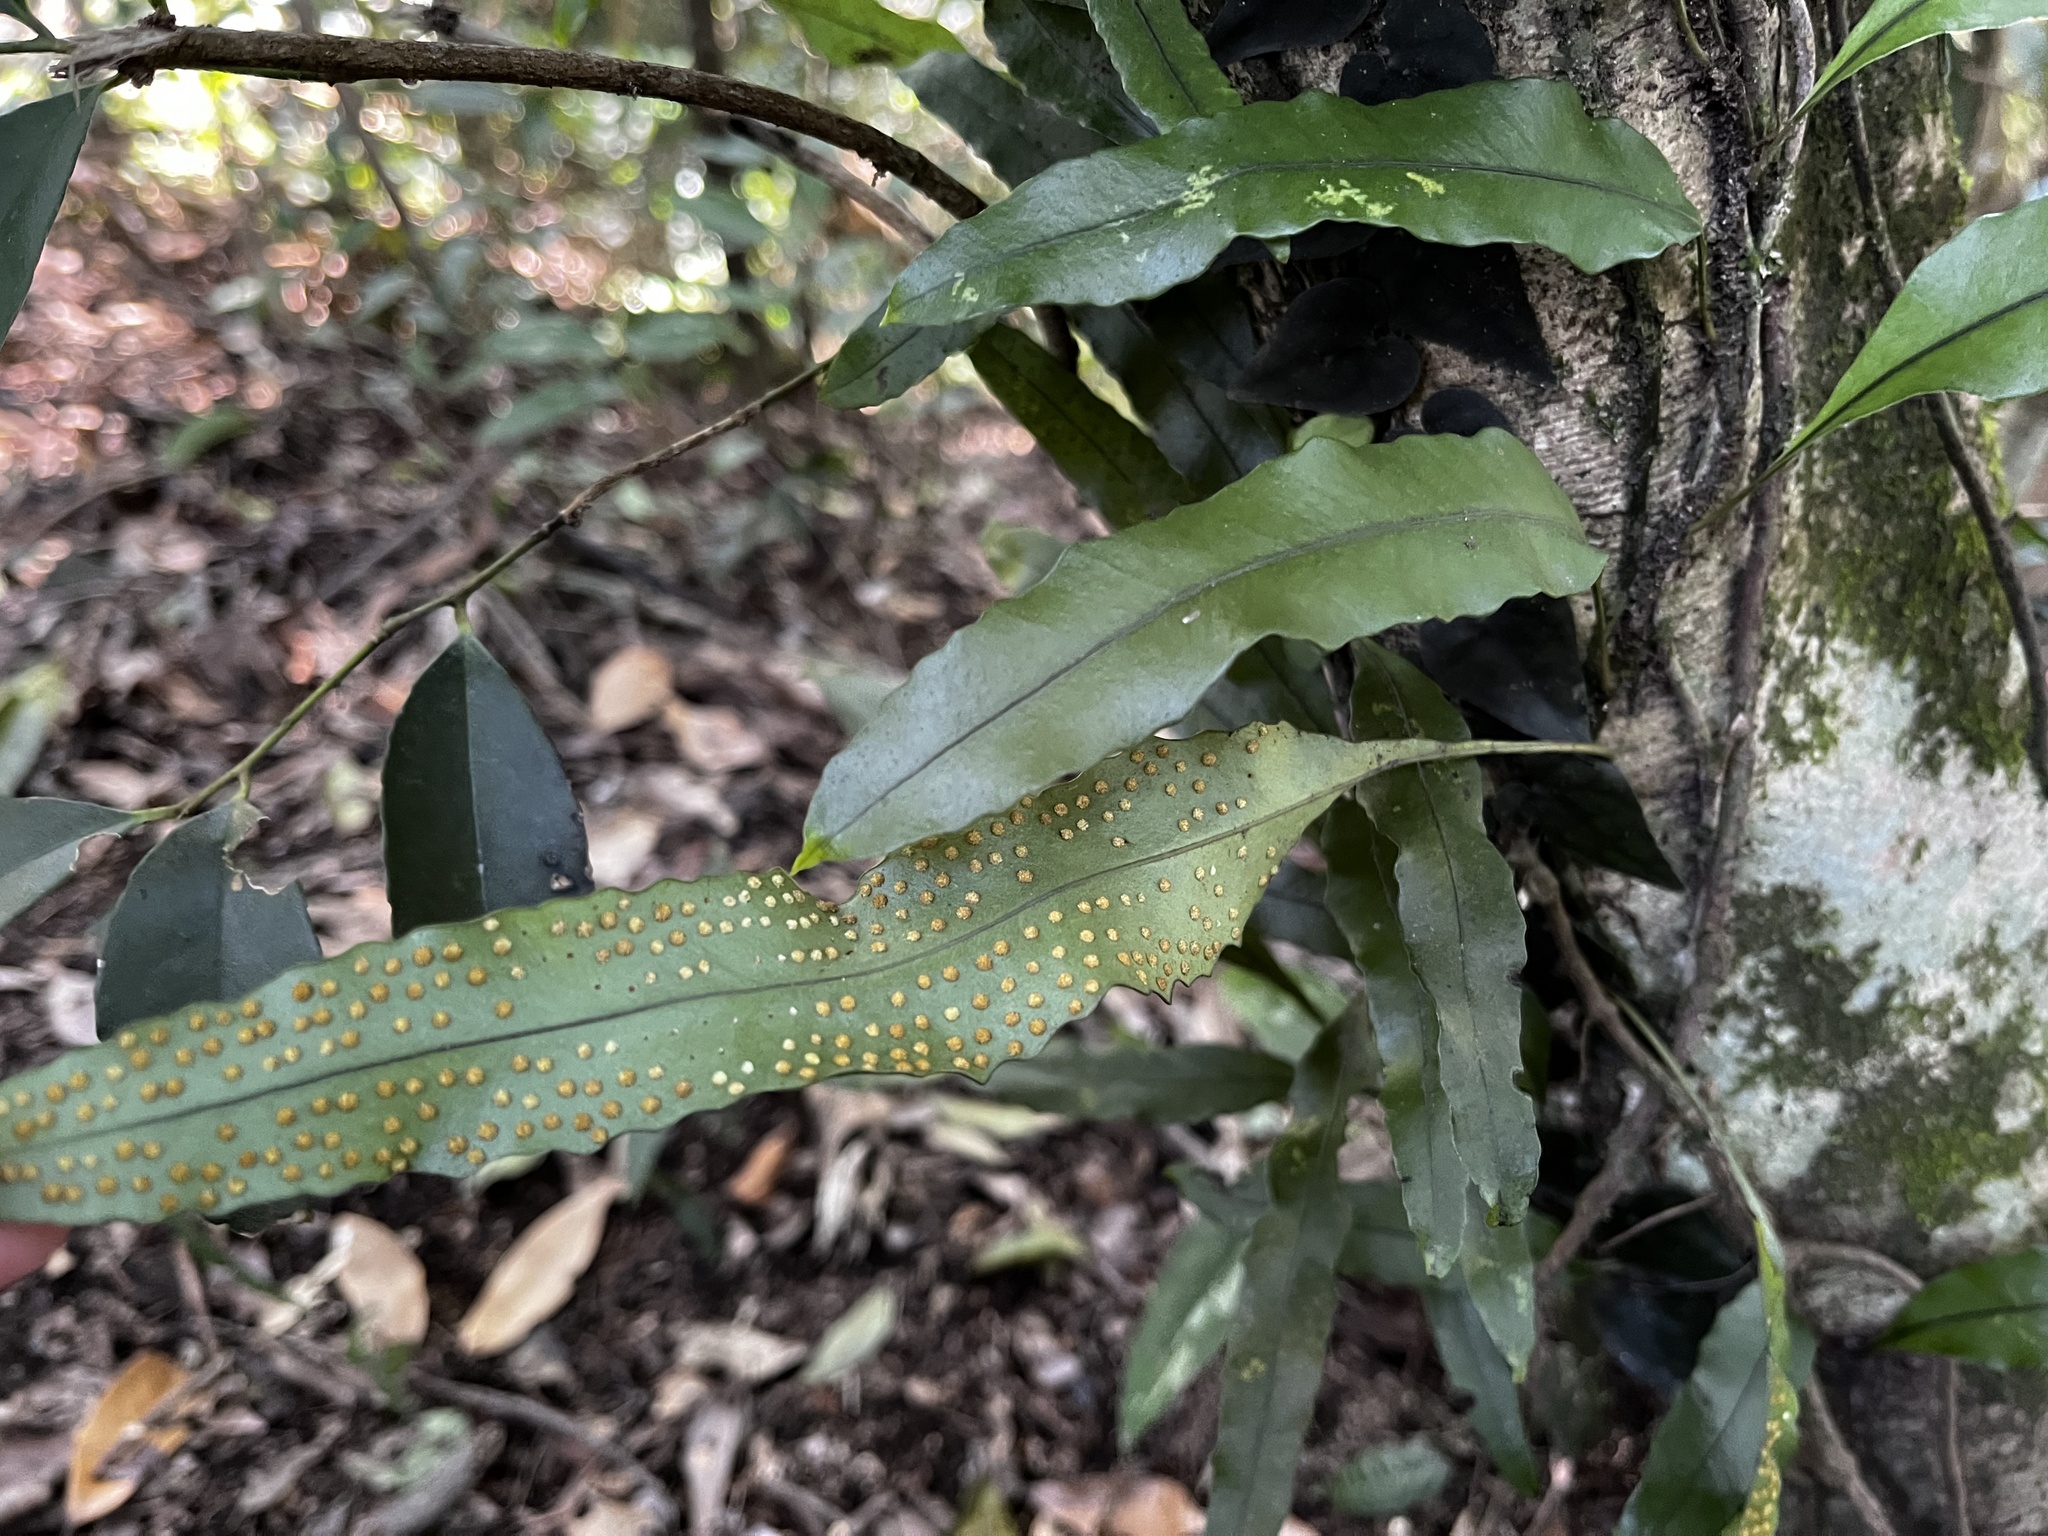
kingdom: Plantae
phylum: Tracheophyta
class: Polypodiopsida
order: Polypodiales
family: Polypodiaceae
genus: Lepisorus
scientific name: Lepisorus superficialis
